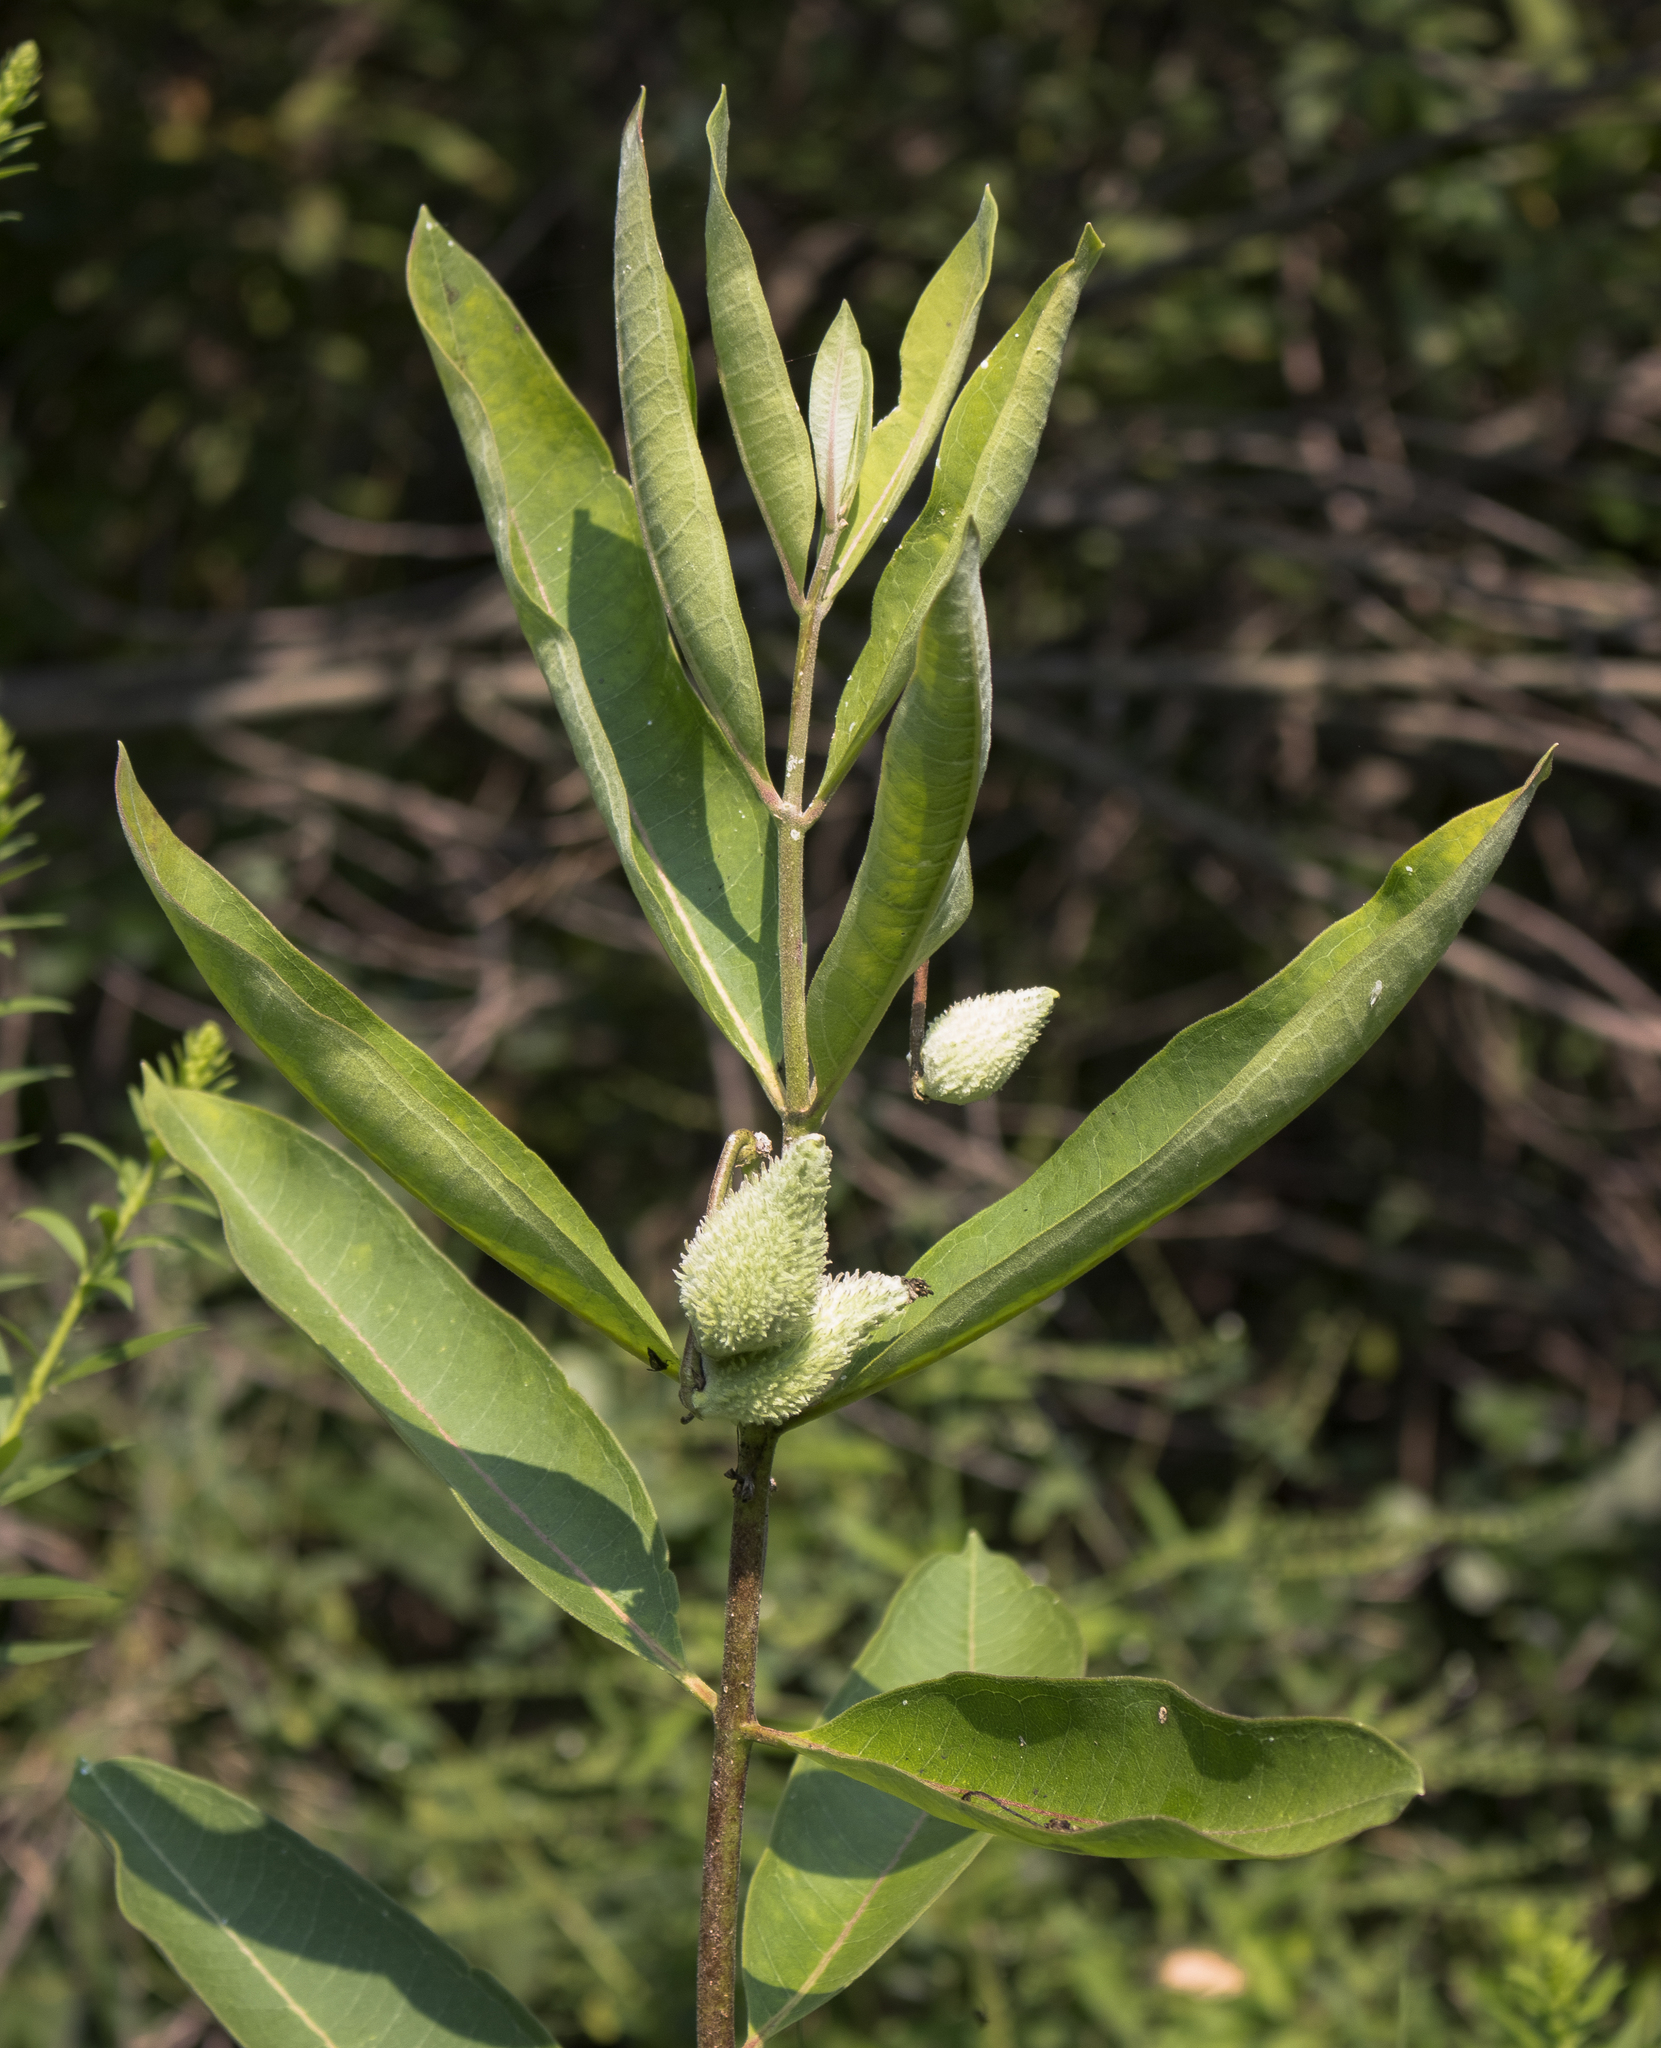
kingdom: Plantae
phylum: Tracheophyta
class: Magnoliopsida
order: Gentianales
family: Apocynaceae
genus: Asclepias
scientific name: Asclepias syriaca
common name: Common milkweed
